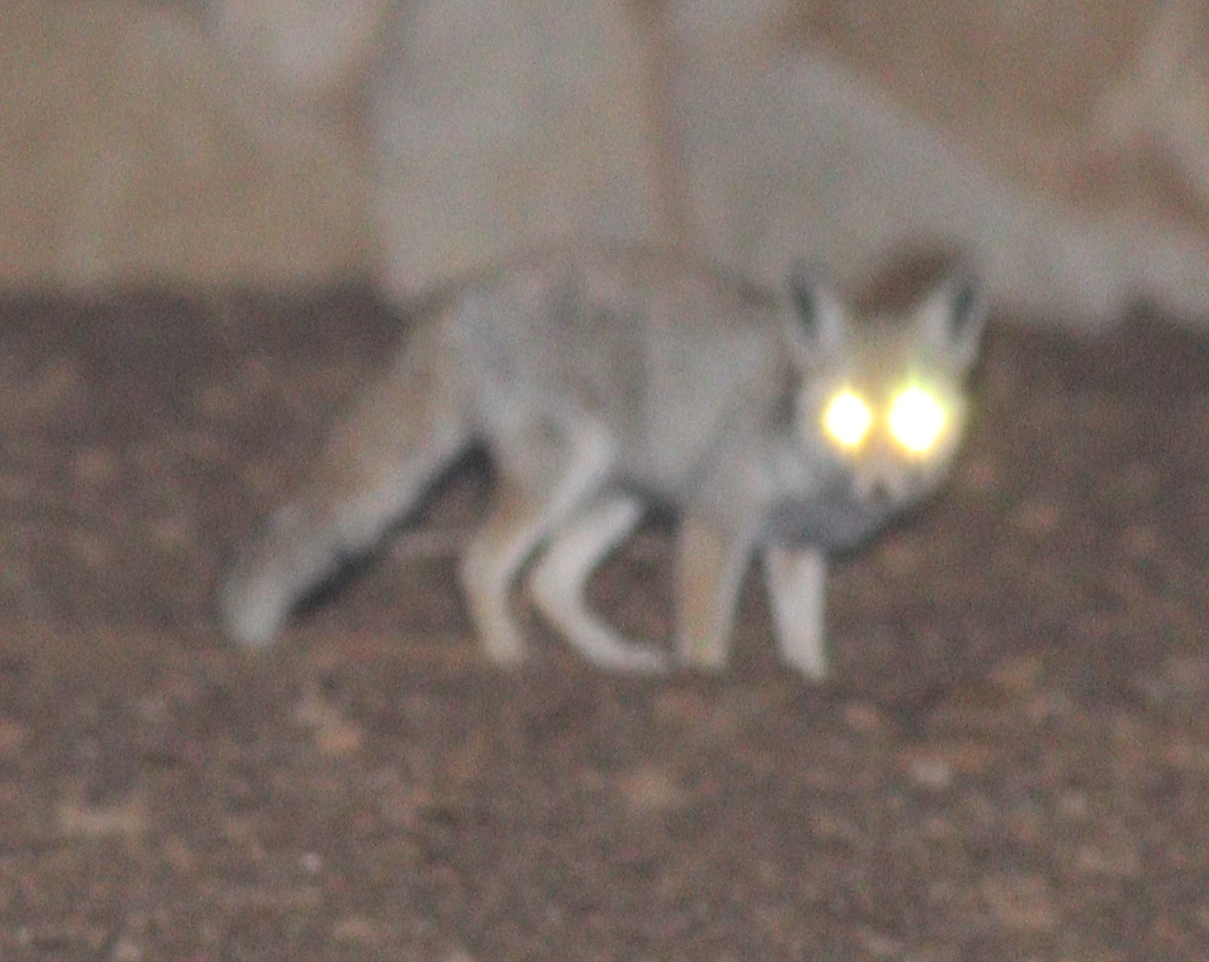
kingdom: Animalia
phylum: Chordata
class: Mammalia
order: Carnivora
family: Canidae
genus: Vulpes
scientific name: Vulpes vulpes
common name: Red fox
